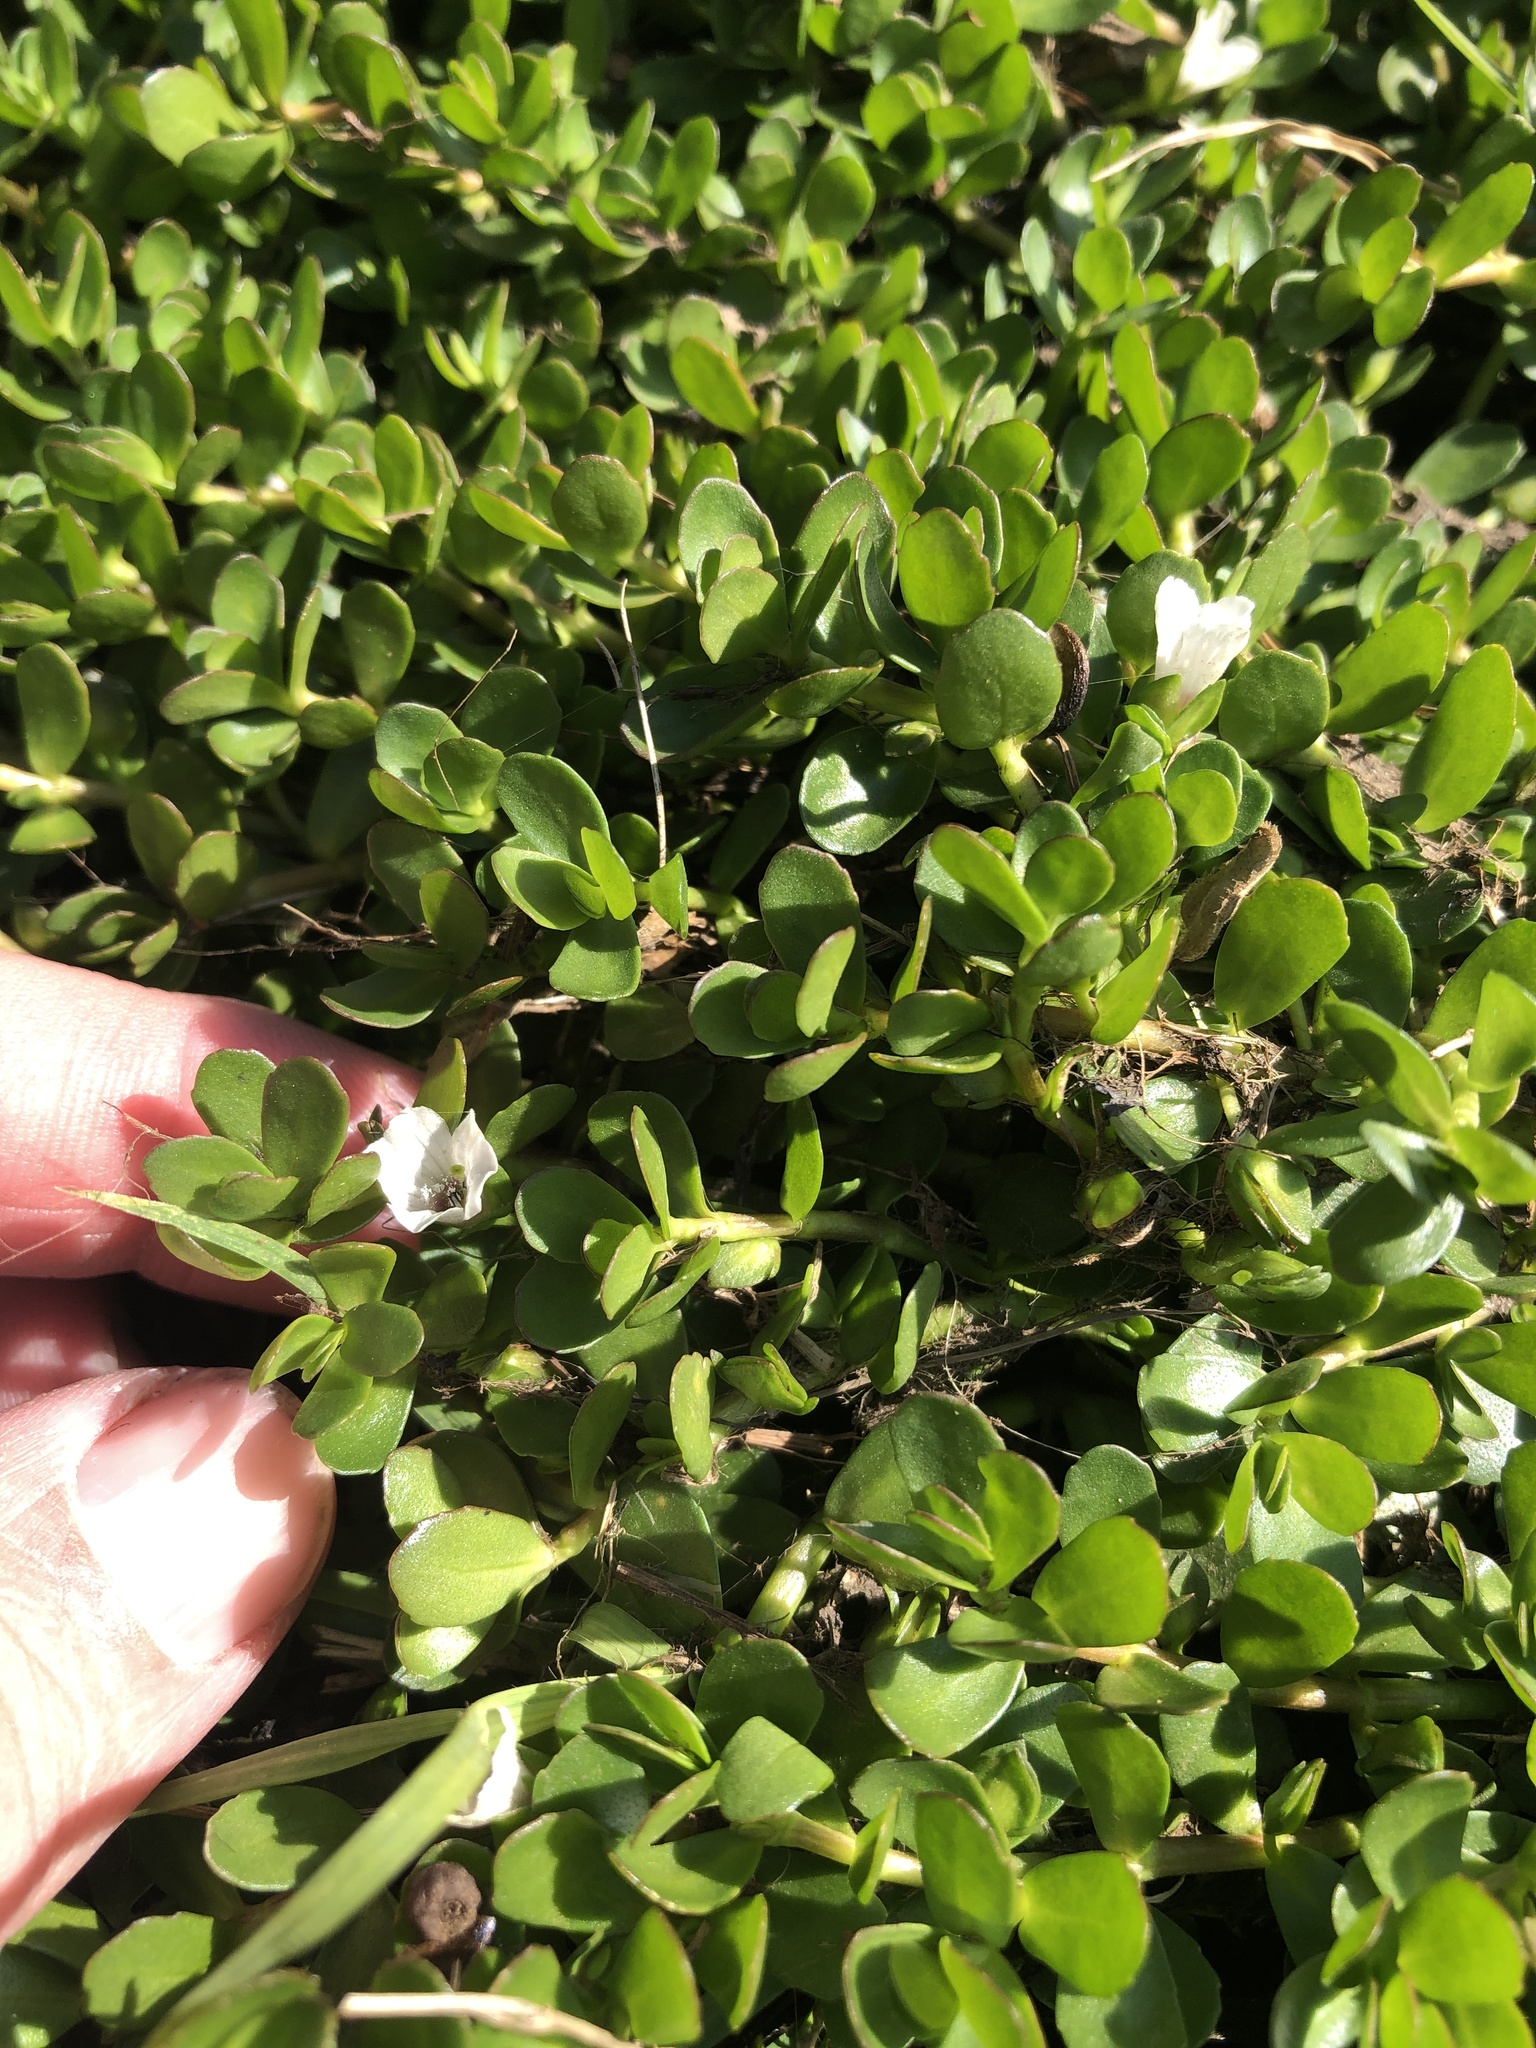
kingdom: Plantae
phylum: Tracheophyta
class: Magnoliopsida
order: Lamiales
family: Plantaginaceae
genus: Bacopa
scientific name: Bacopa monnieri
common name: Indian-pennywort
